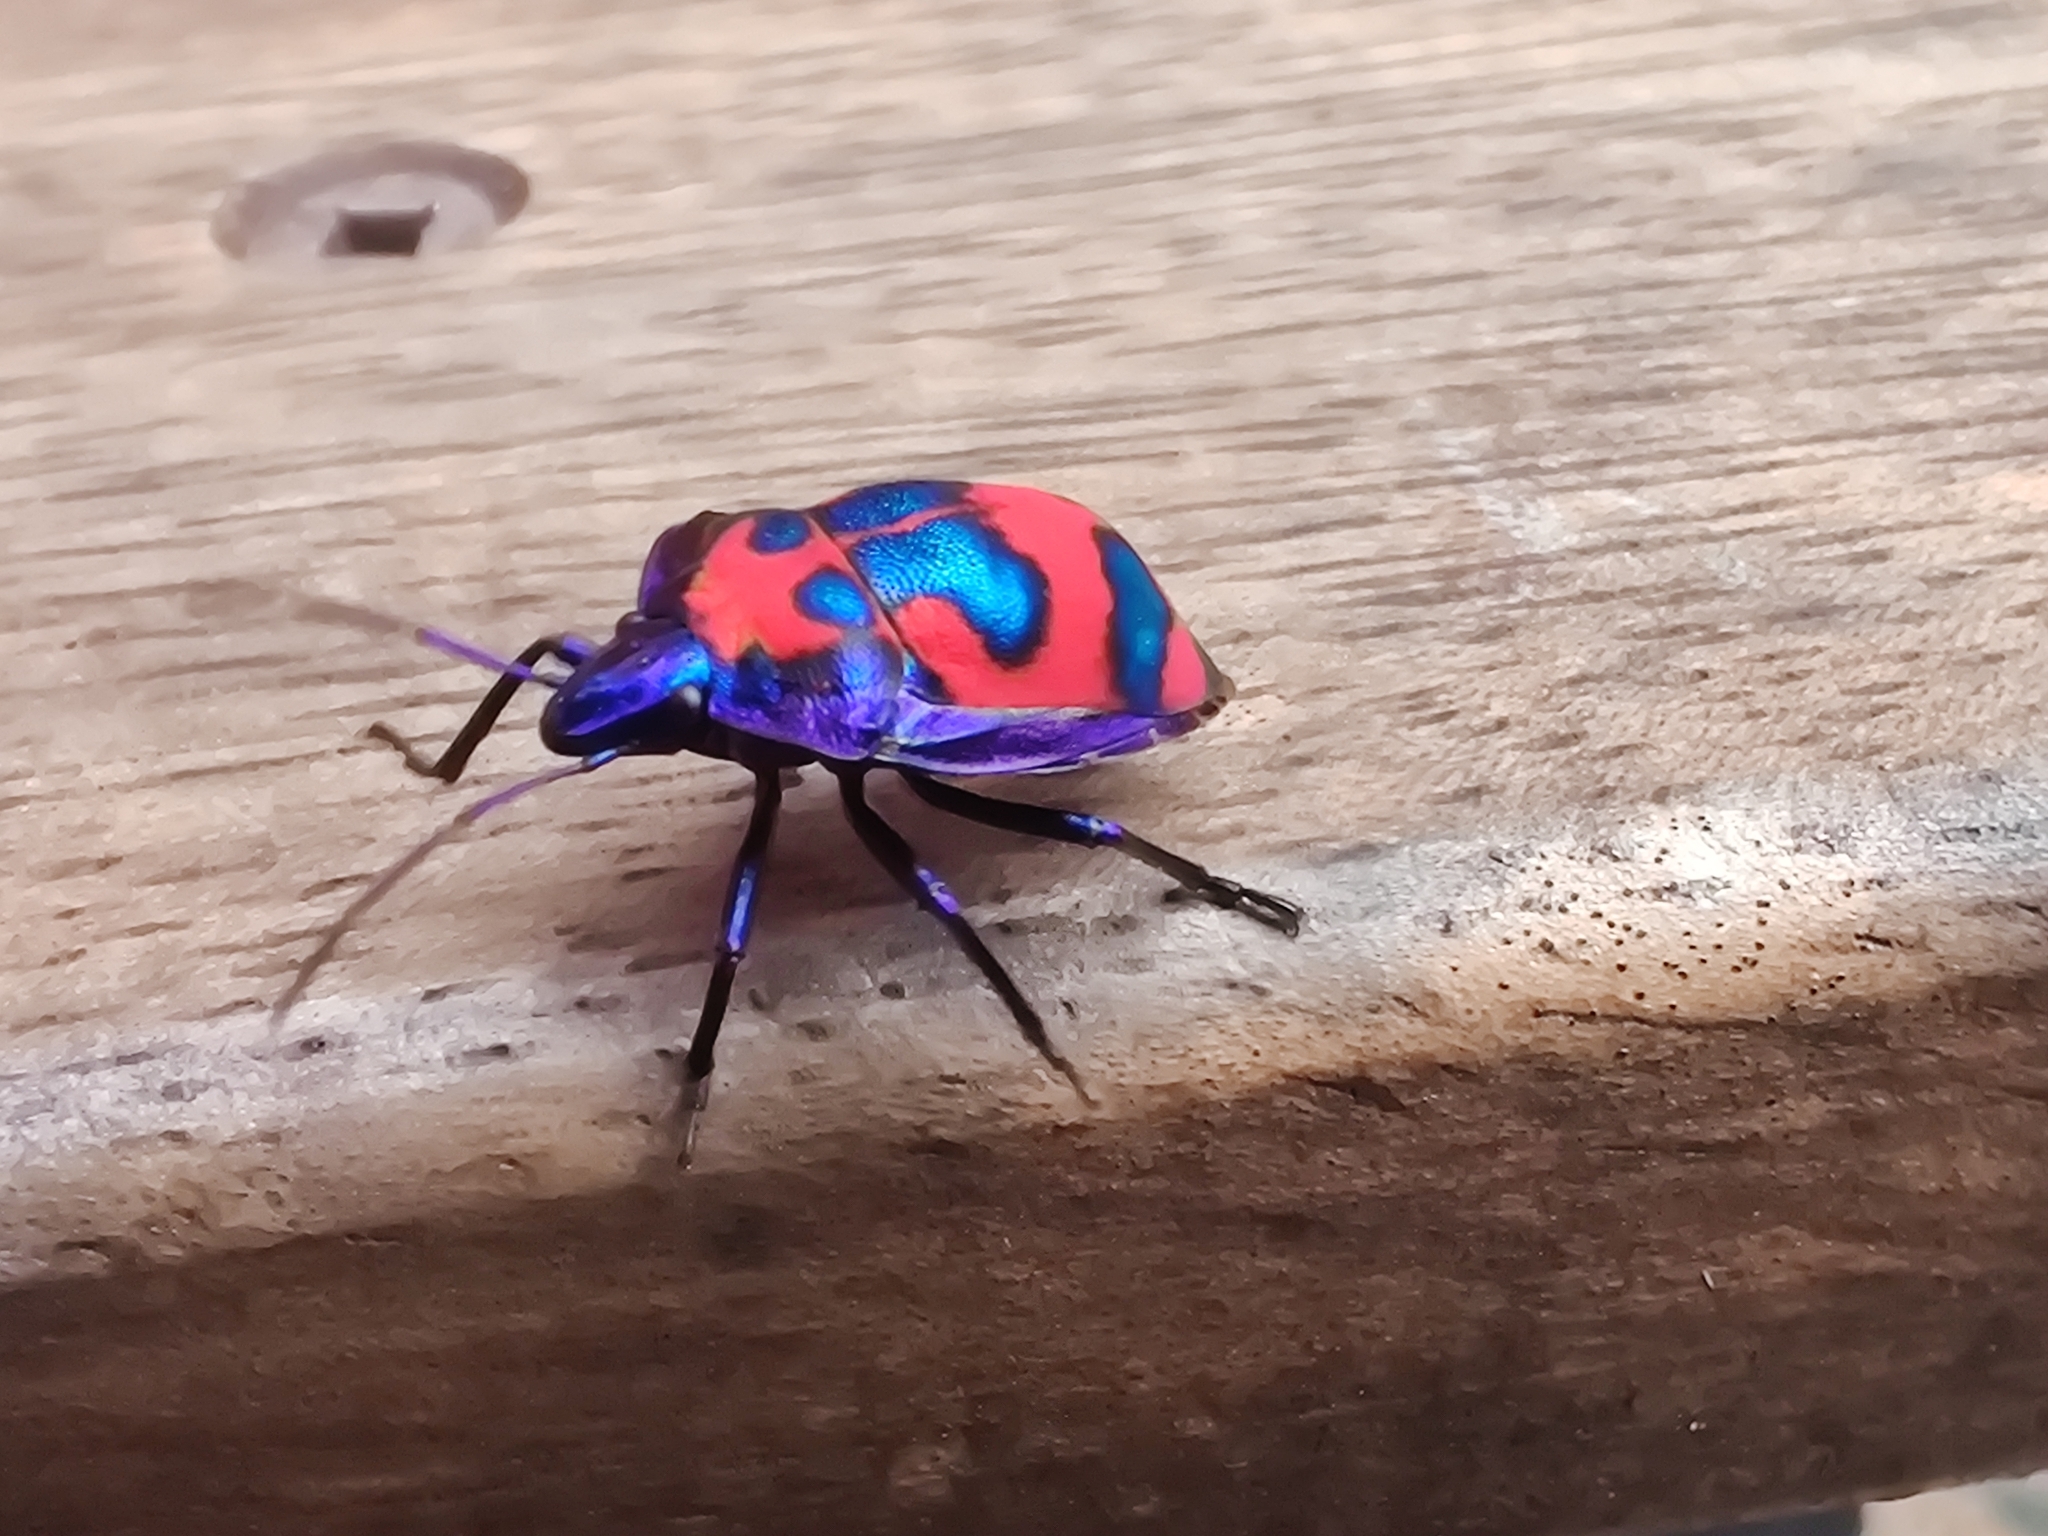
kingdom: Animalia
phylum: Arthropoda
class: Insecta
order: Hemiptera
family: Scutelleridae
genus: Tectocoris
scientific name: Tectocoris diophthalmus
